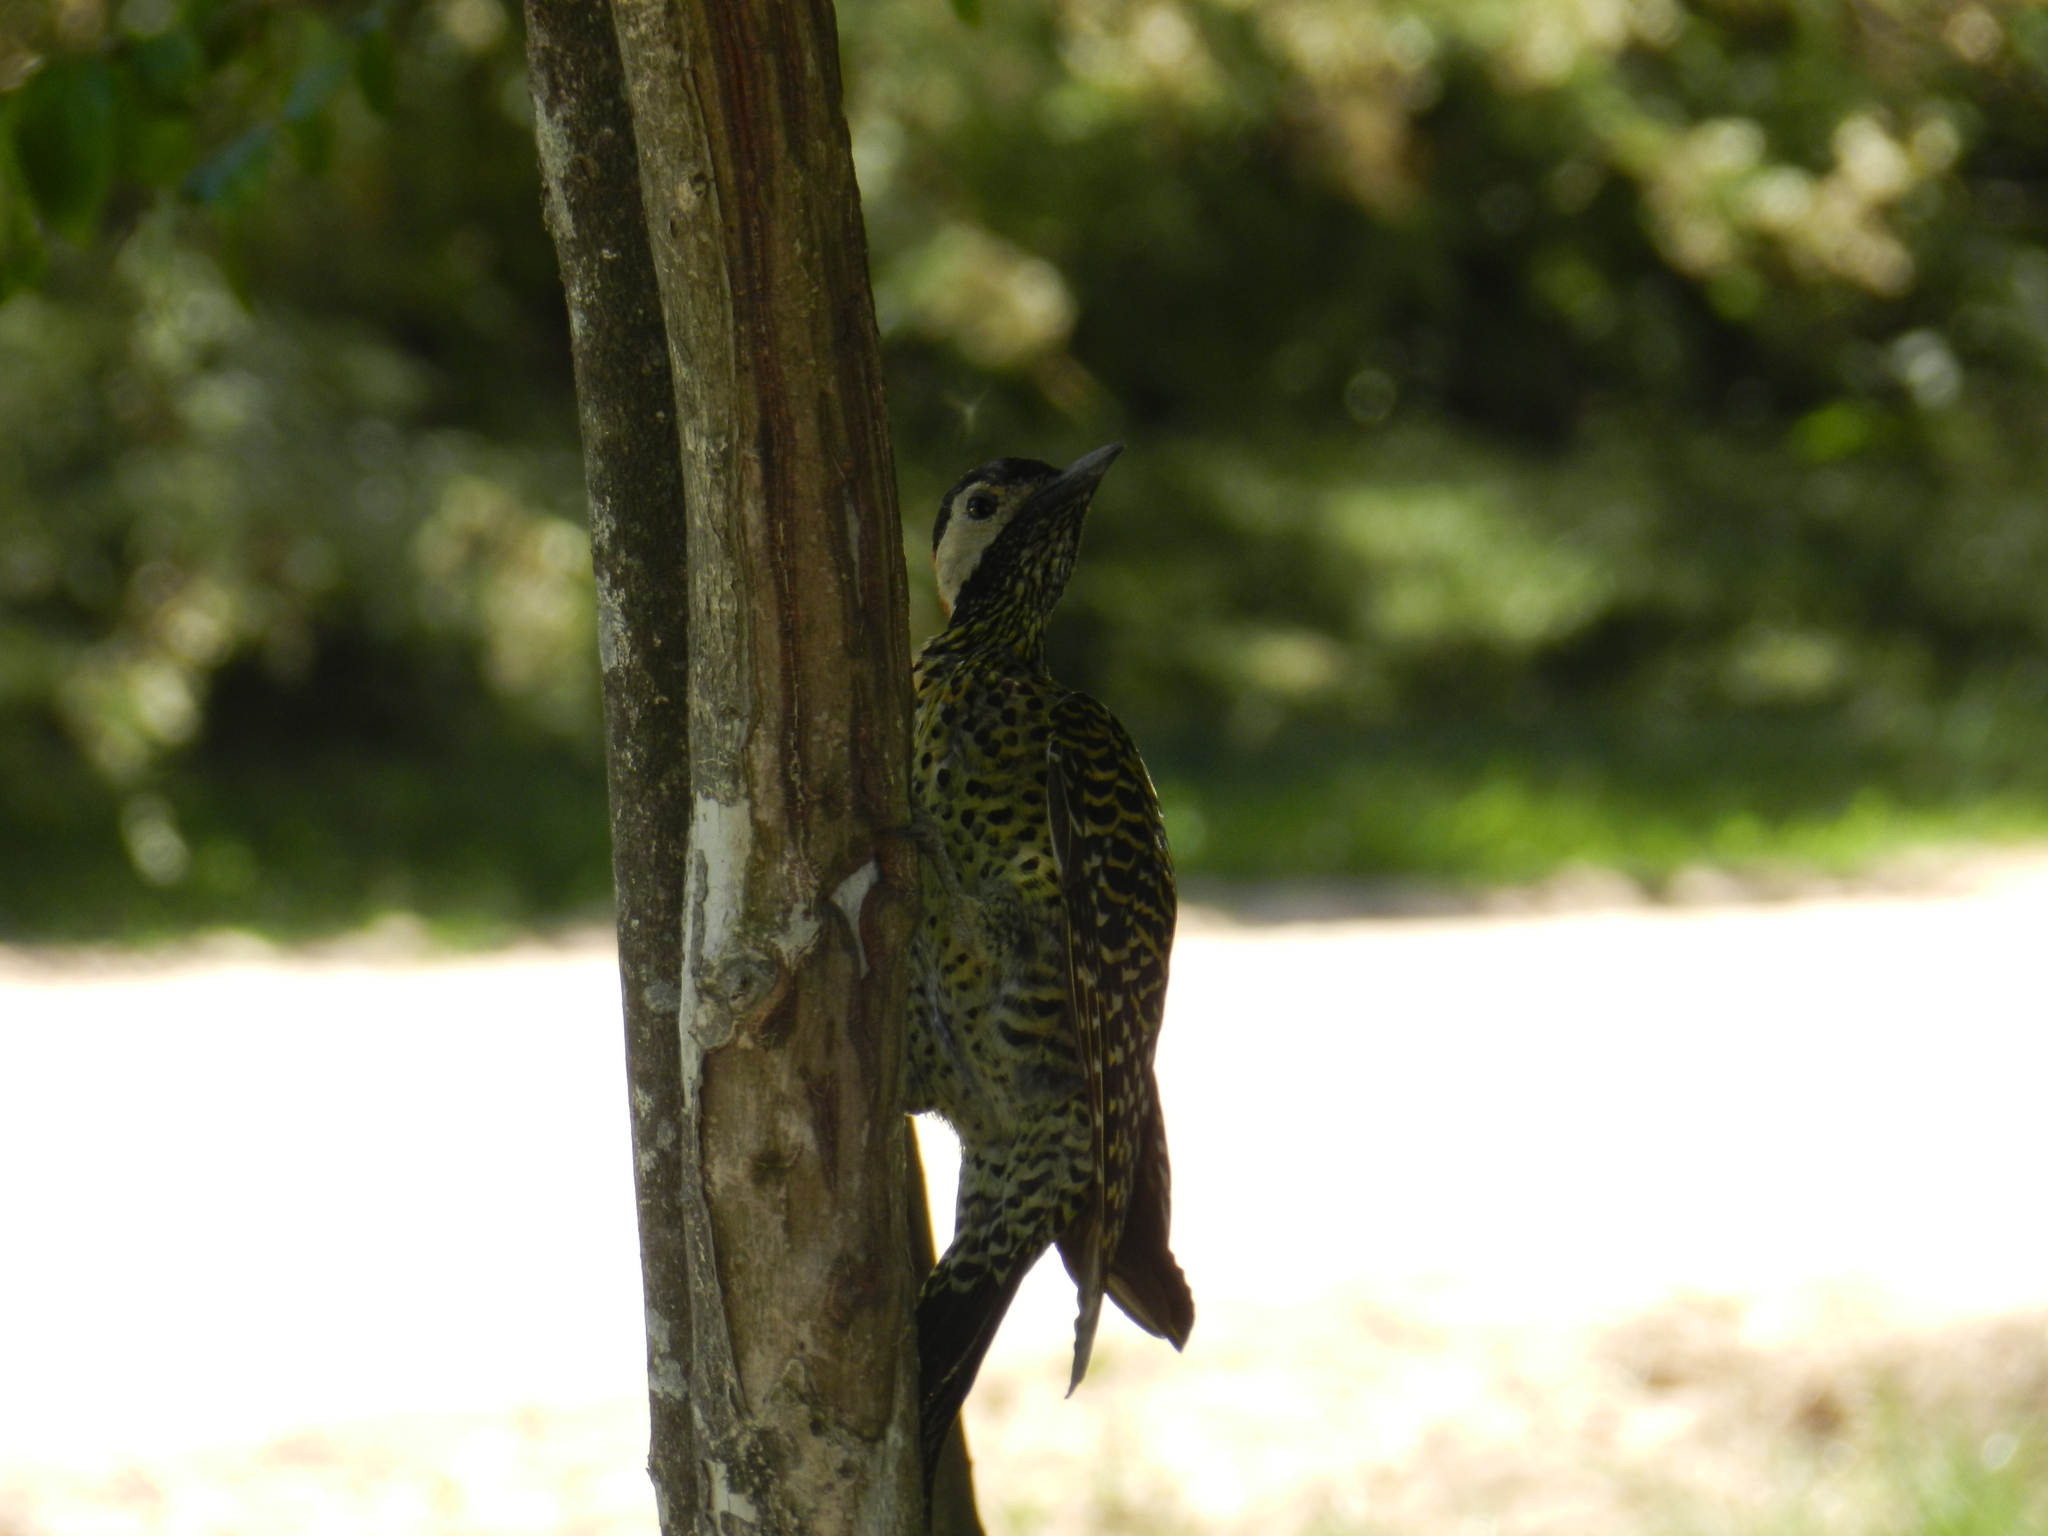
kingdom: Animalia
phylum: Chordata
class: Aves
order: Piciformes
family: Picidae
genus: Colaptes
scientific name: Colaptes melanochloros
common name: Green-barred woodpecker
